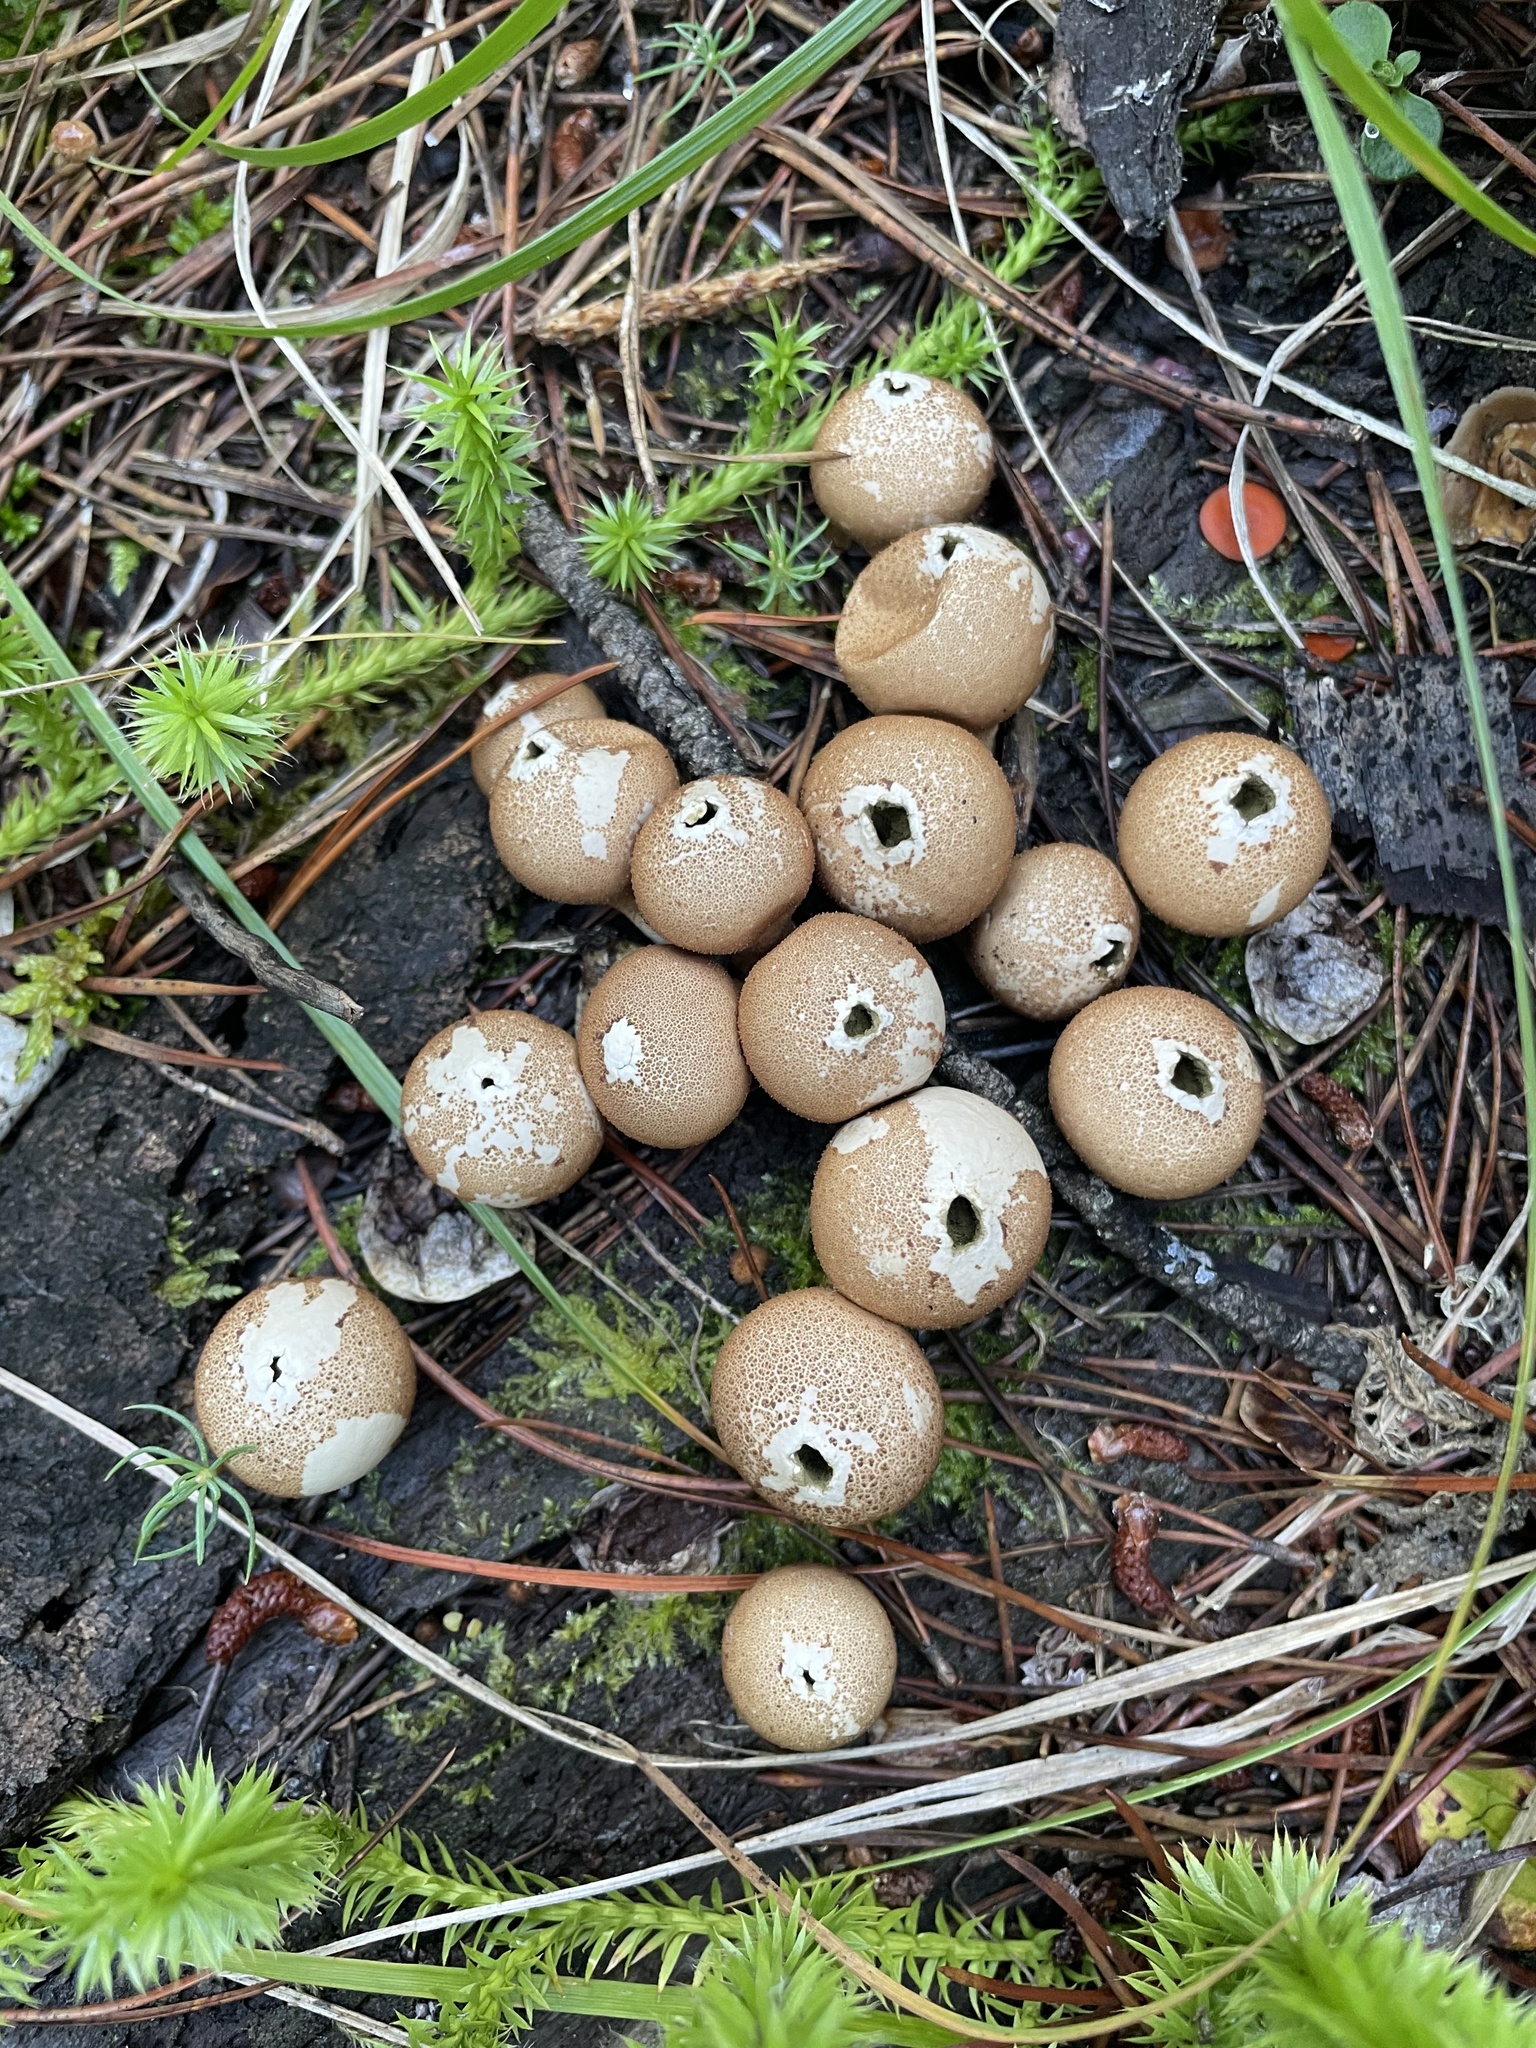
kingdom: Fungi
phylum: Basidiomycota
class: Agaricomycetes
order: Agaricales
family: Lycoperdaceae
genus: Apioperdon
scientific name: Apioperdon pyriforme
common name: Pear-shaped puffball
